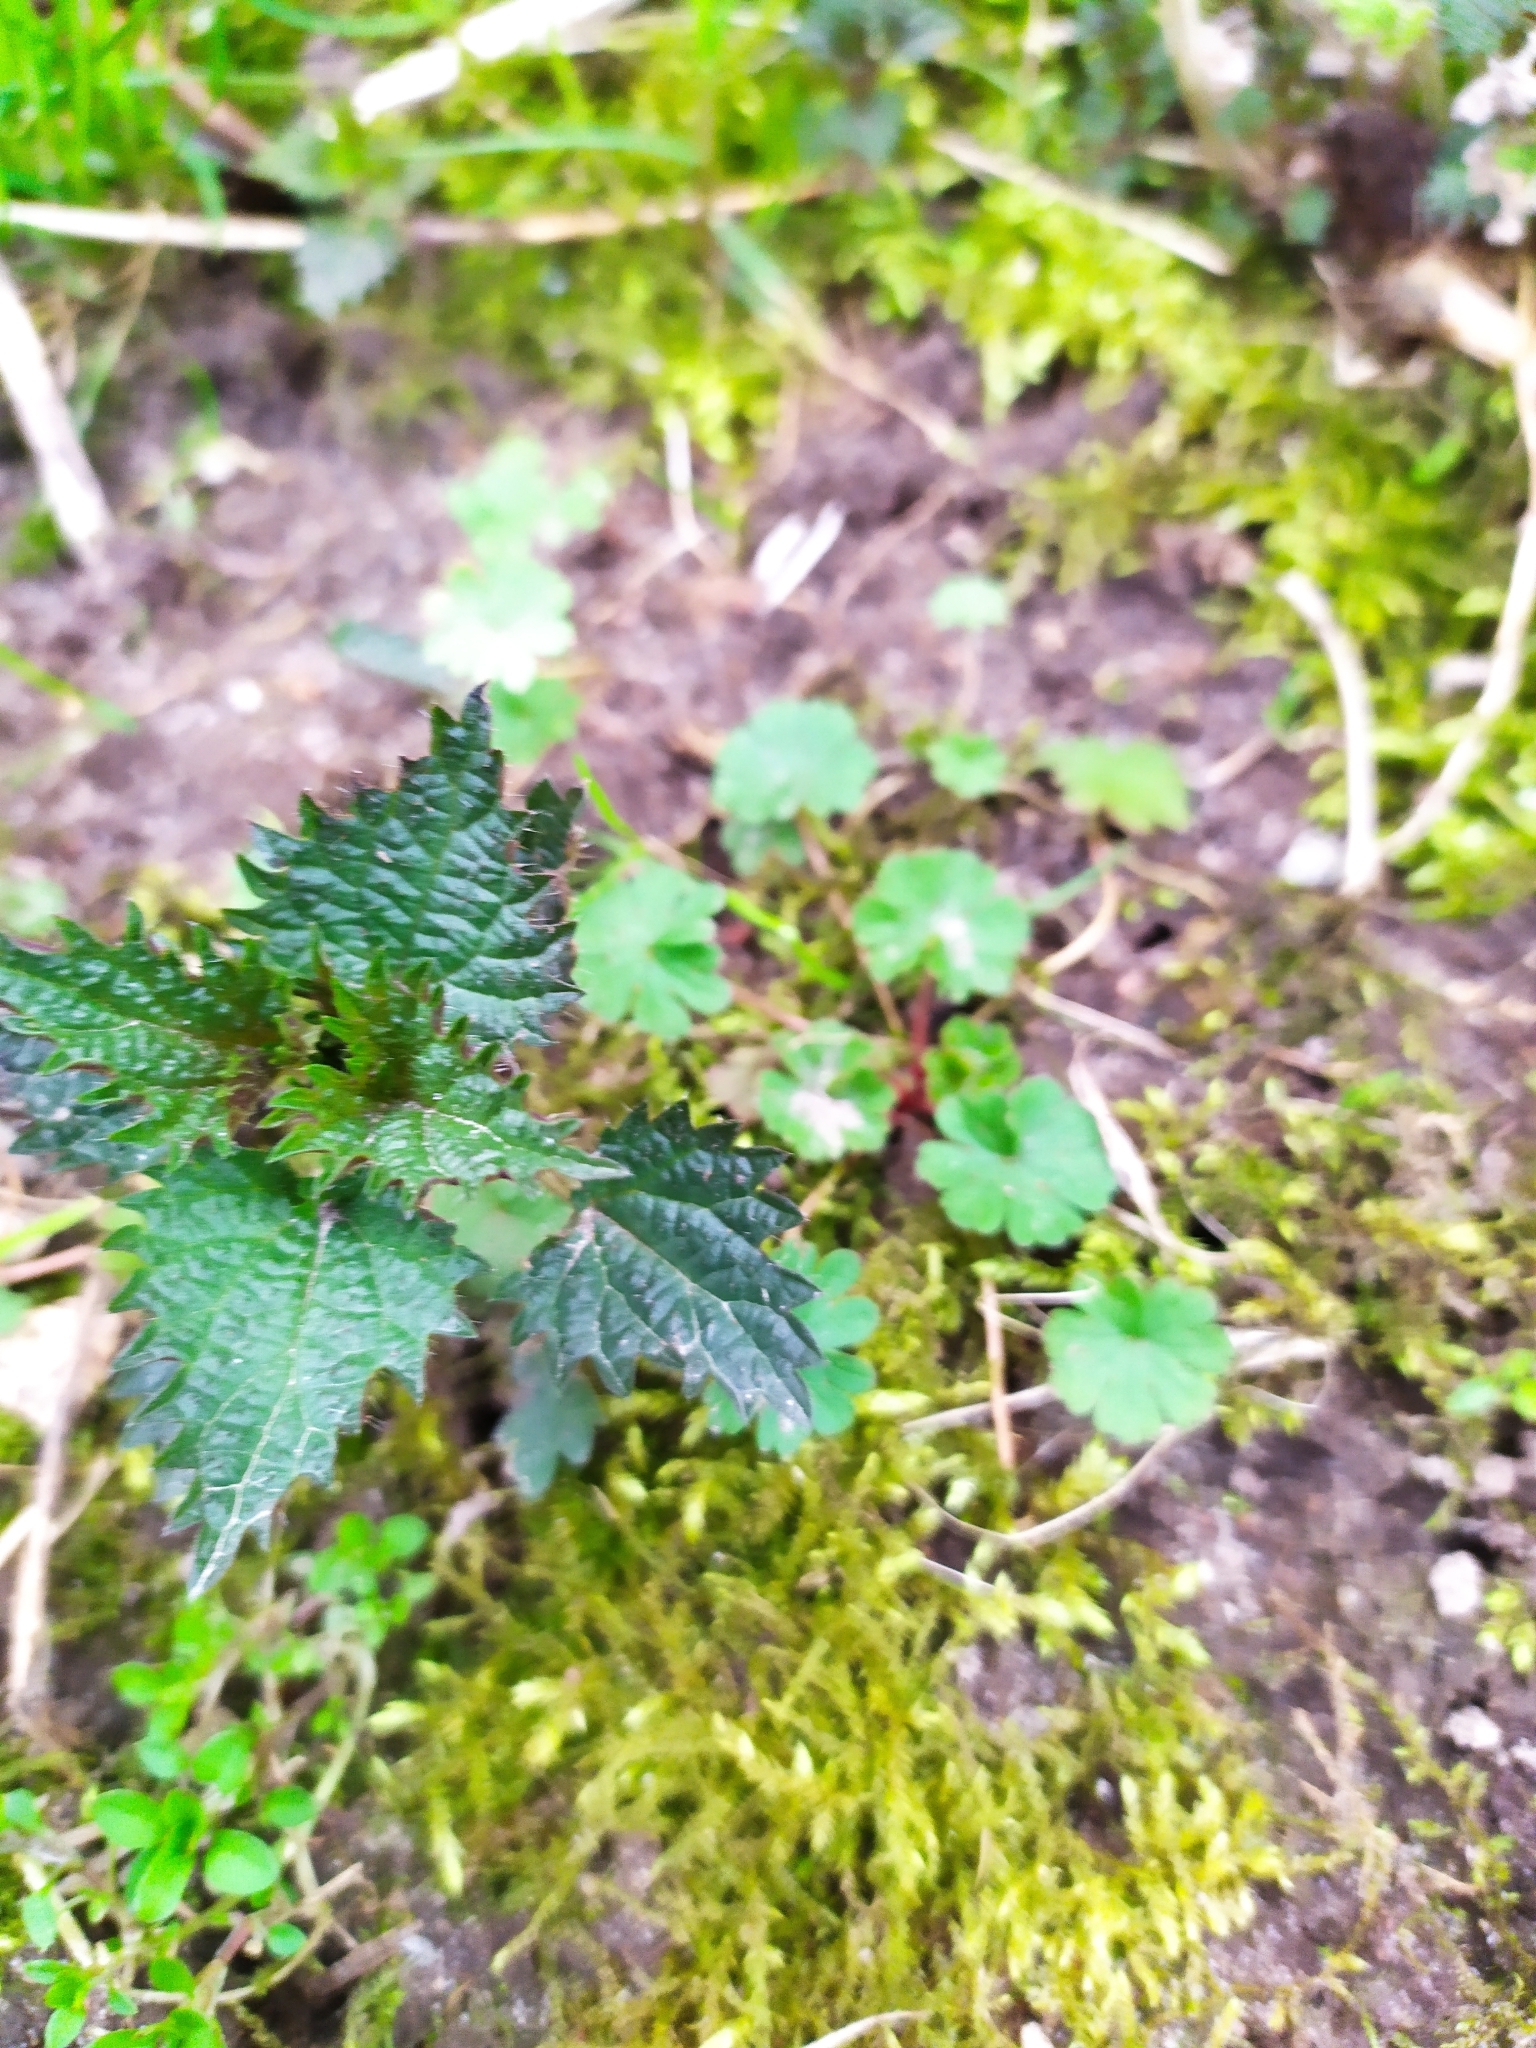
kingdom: Plantae
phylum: Tracheophyta
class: Magnoliopsida
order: Rosales
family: Urticaceae
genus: Urtica
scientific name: Urtica dioica
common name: Common nettle
